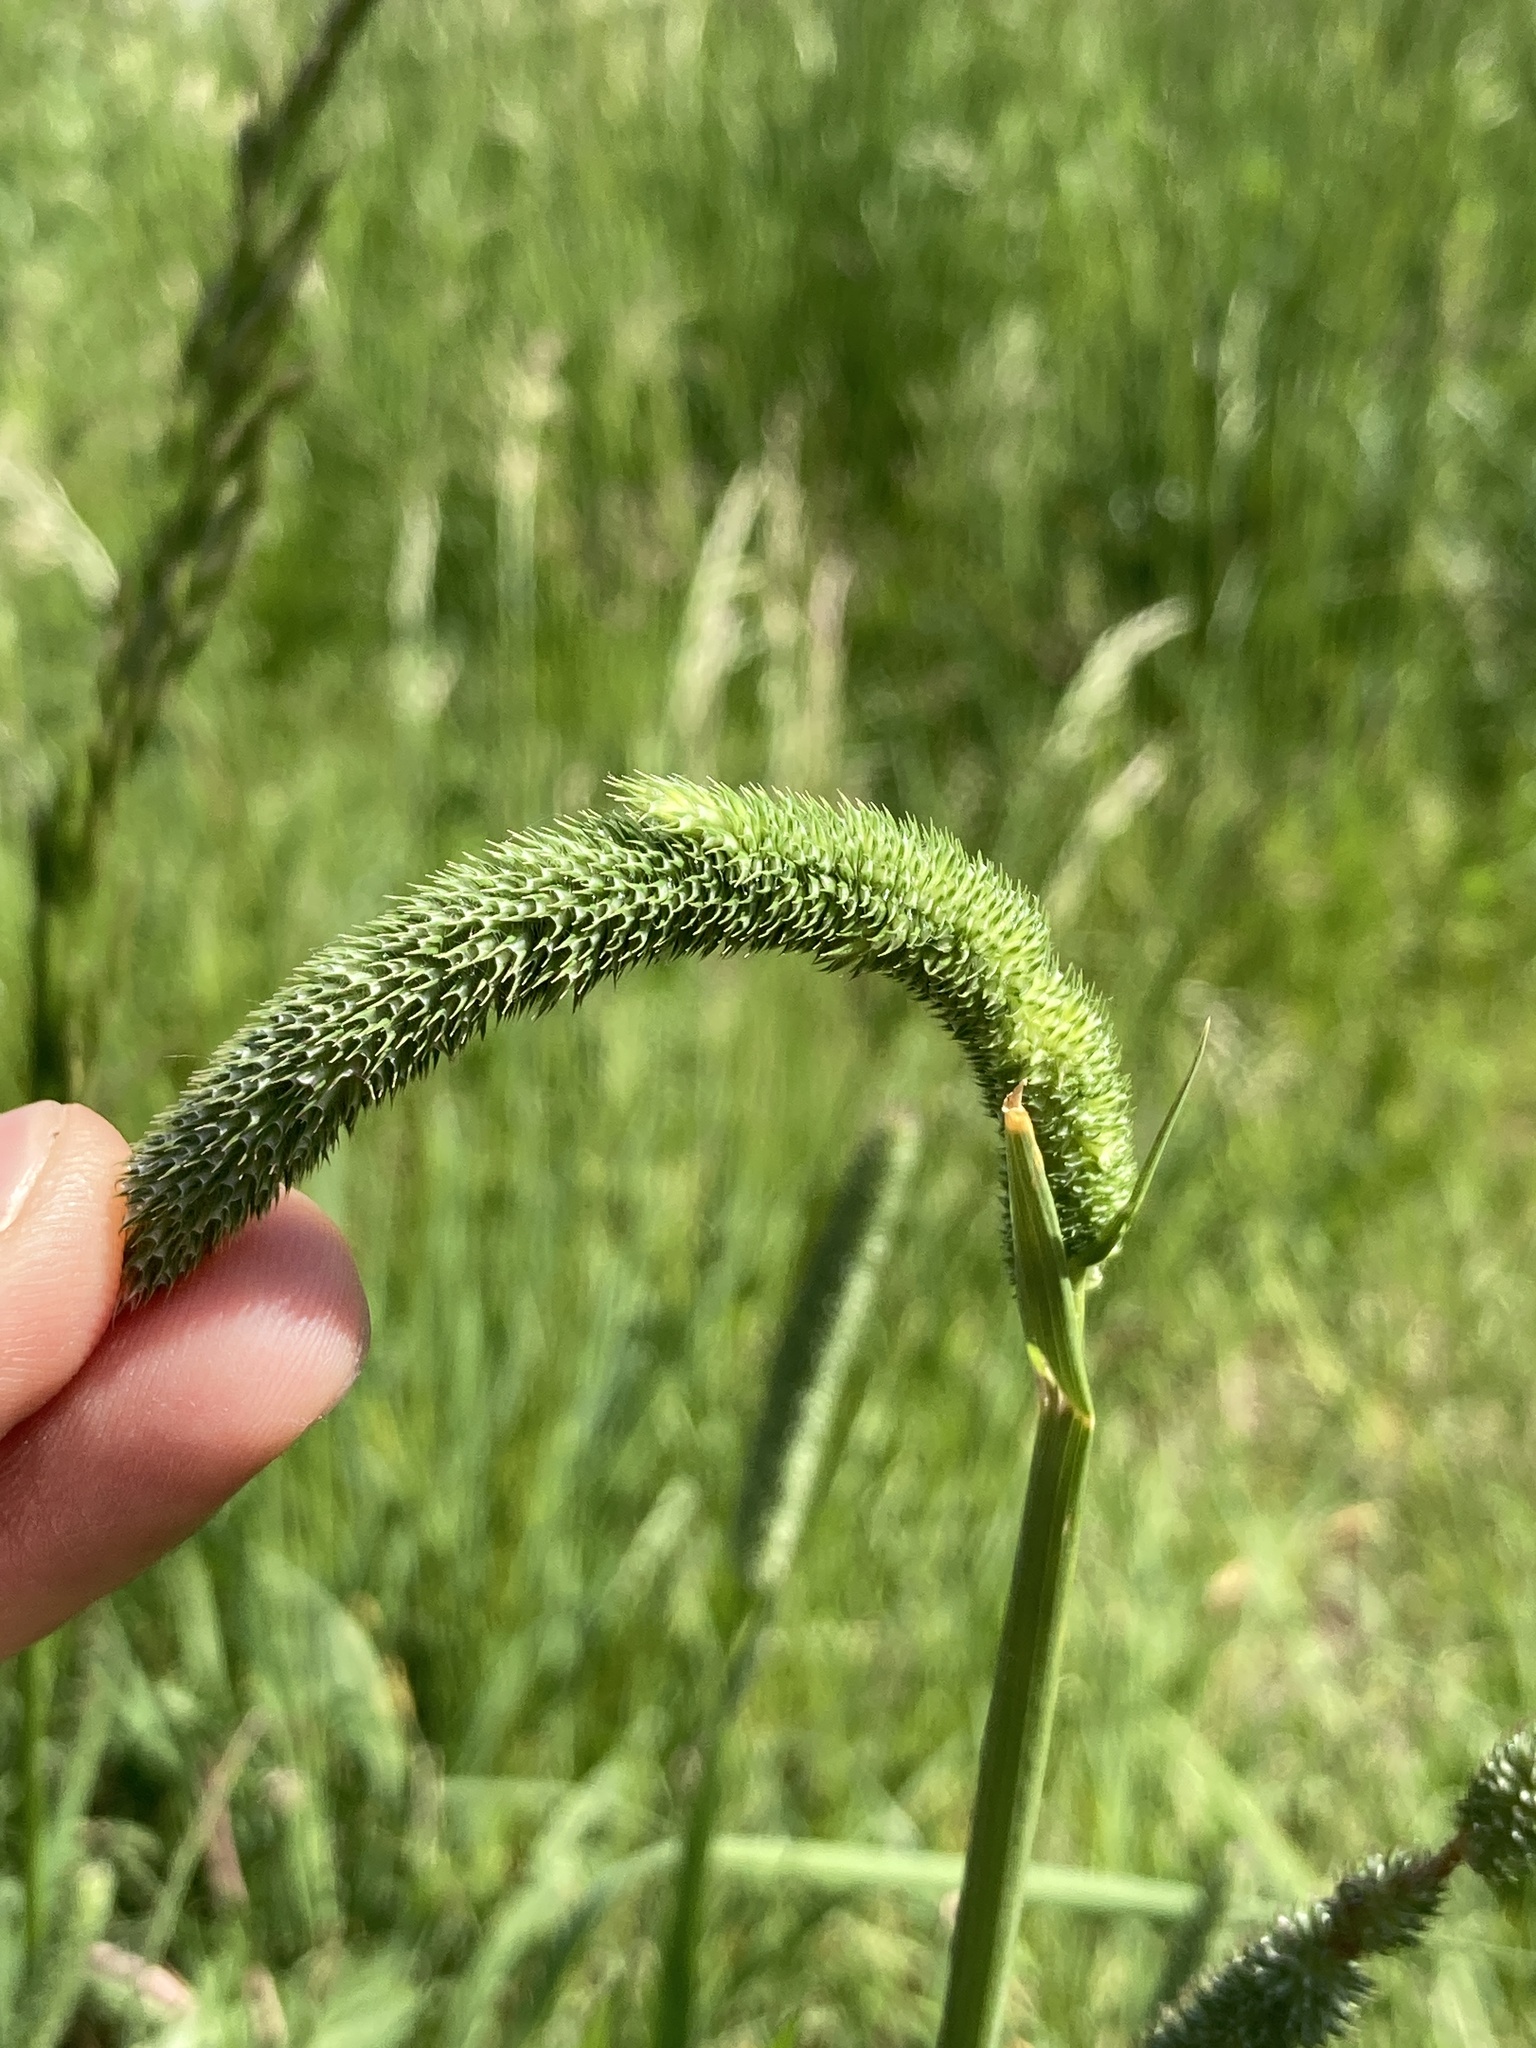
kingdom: Plantae
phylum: Tracheophyta
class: Liliopsida
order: Poales
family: Poaceae
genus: Phleum
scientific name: Phleum pratense
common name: Timothy grass
